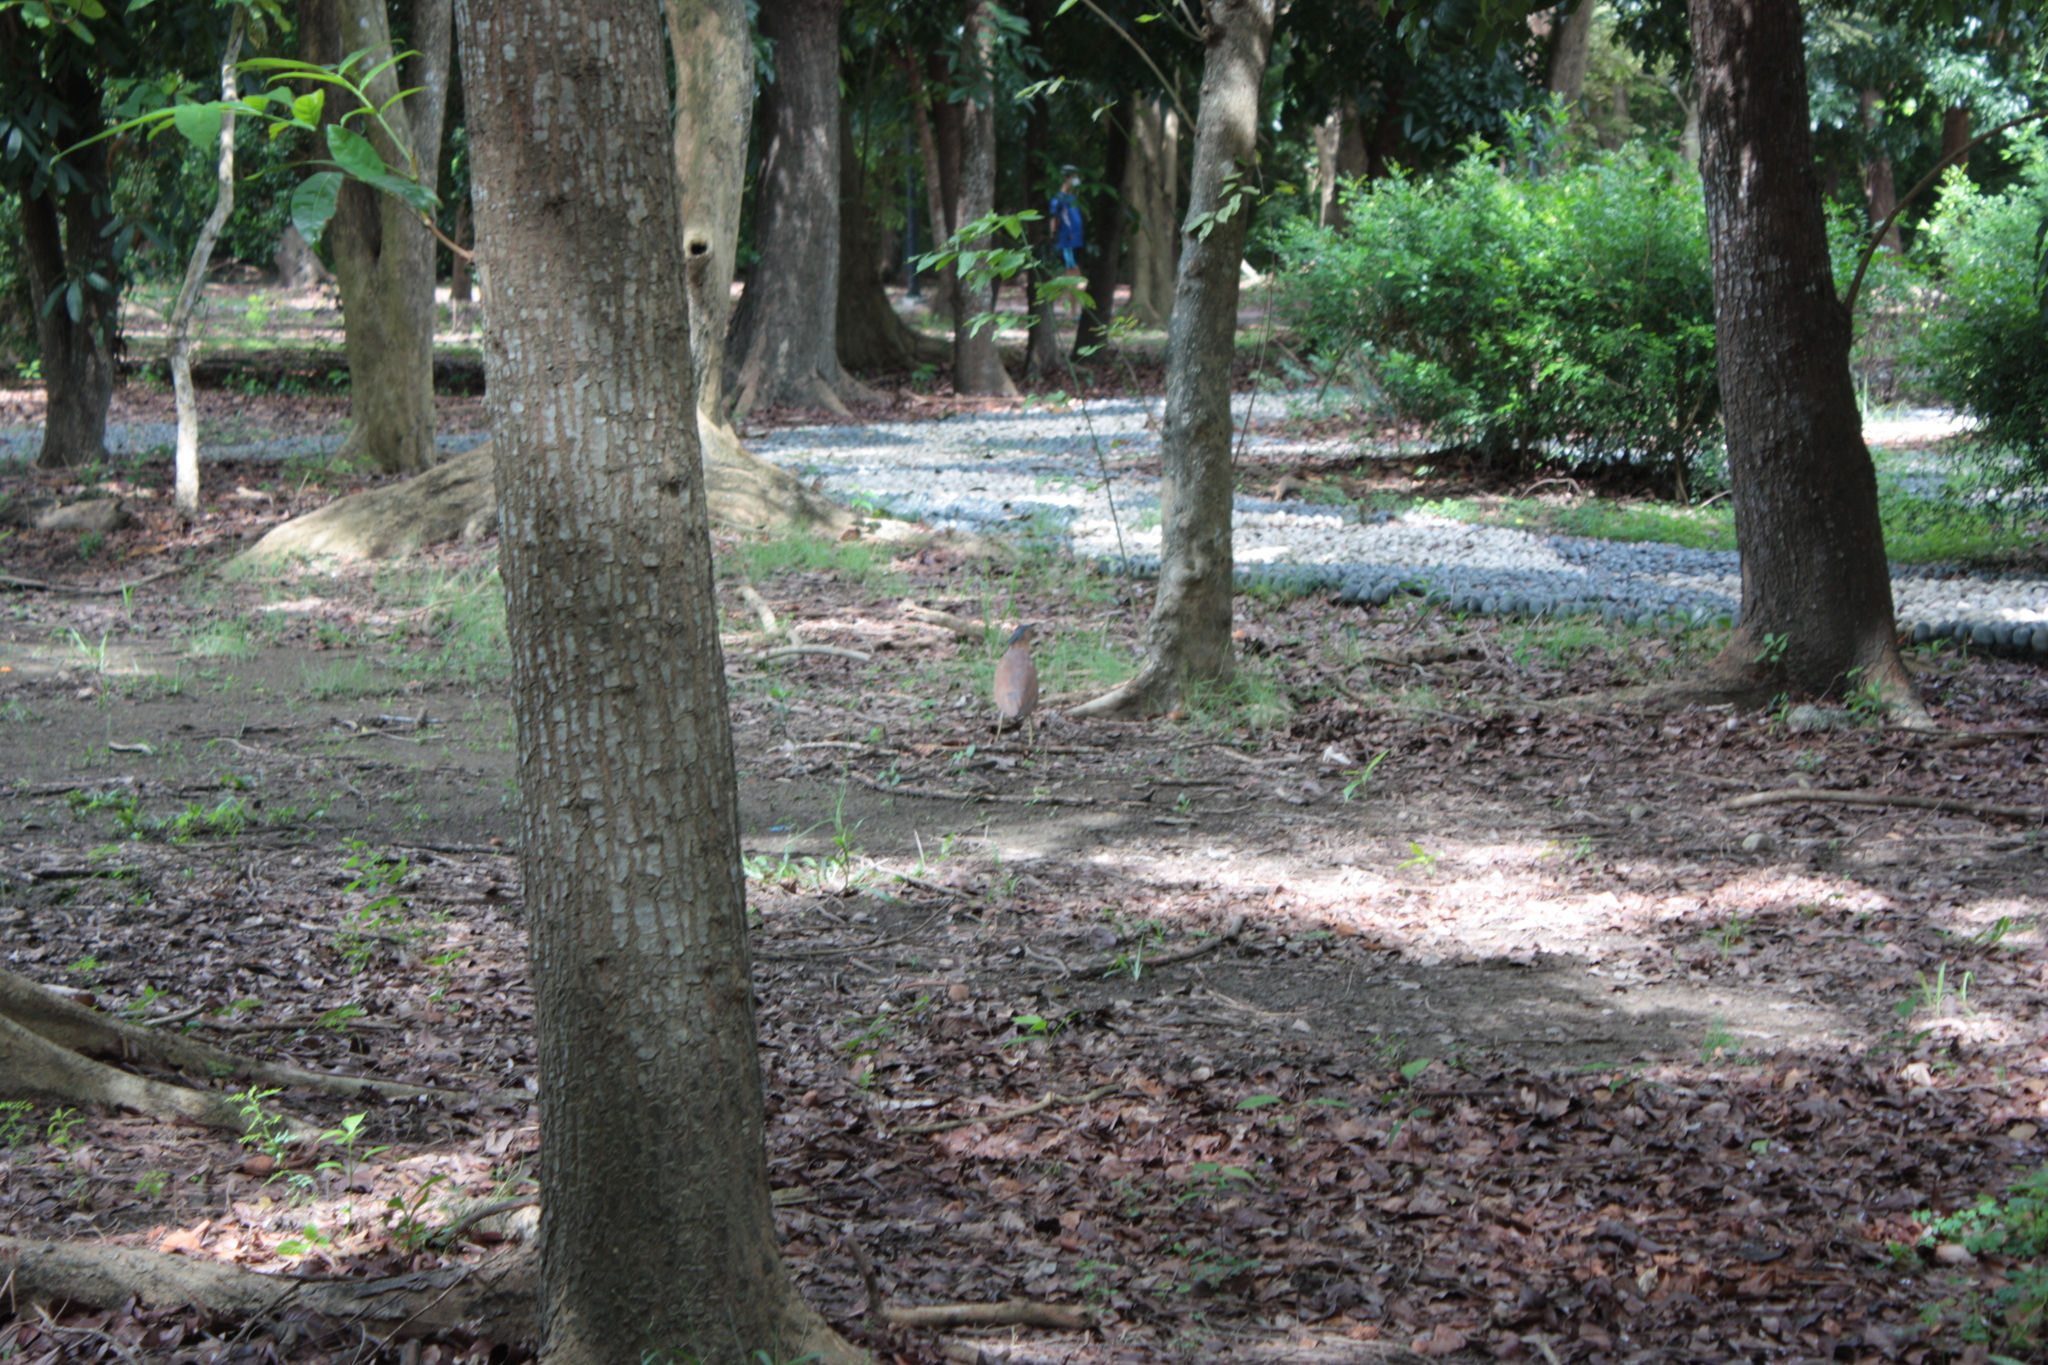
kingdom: Animalia
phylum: Chordata
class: Aves
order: Pelecaniformes
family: Ardeidae
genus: Gorsachius
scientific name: Gorsachius melanolophus
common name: Malayan night heron
